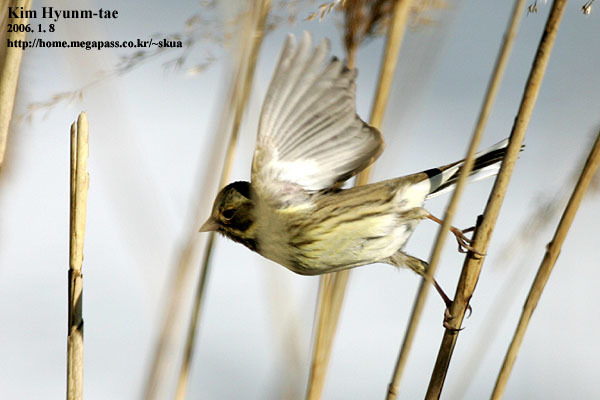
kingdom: Animalia
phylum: Chordata
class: Aves
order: Passeriformes
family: Emberizidae
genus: Emberiza
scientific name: Emberiza spodocephala
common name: Black-faced bunting
